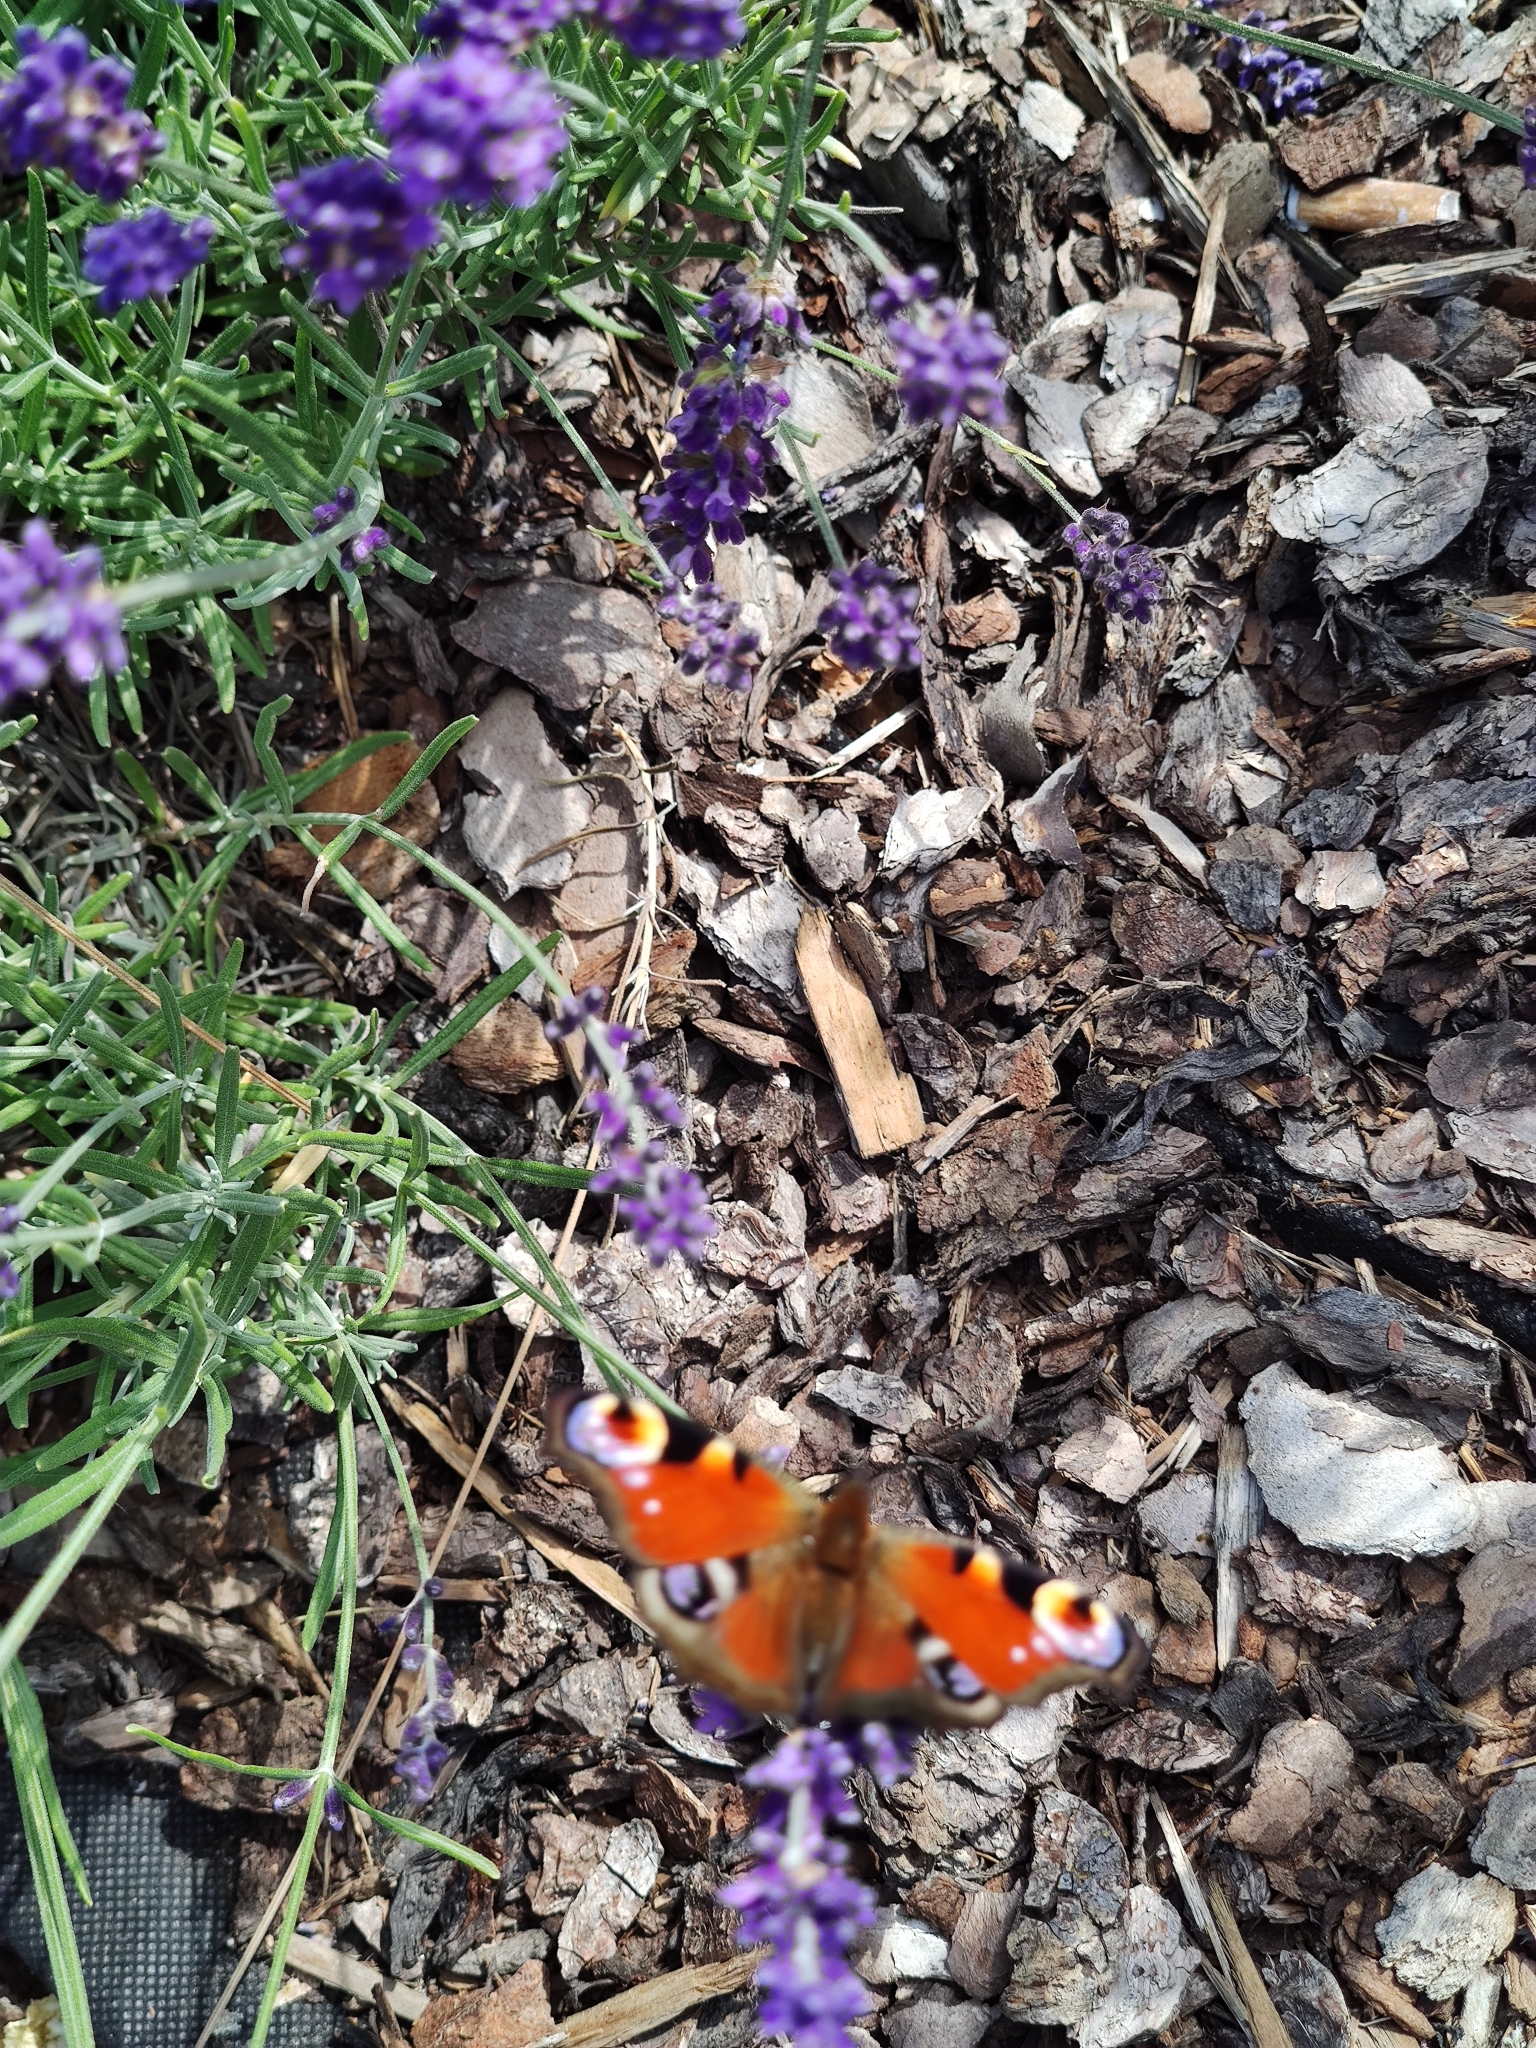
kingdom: Animalia
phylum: Arthropoda
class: Insecta
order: Lepidoptera
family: Nymphalidae
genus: Aglais
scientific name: Aglais io
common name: Peacock
